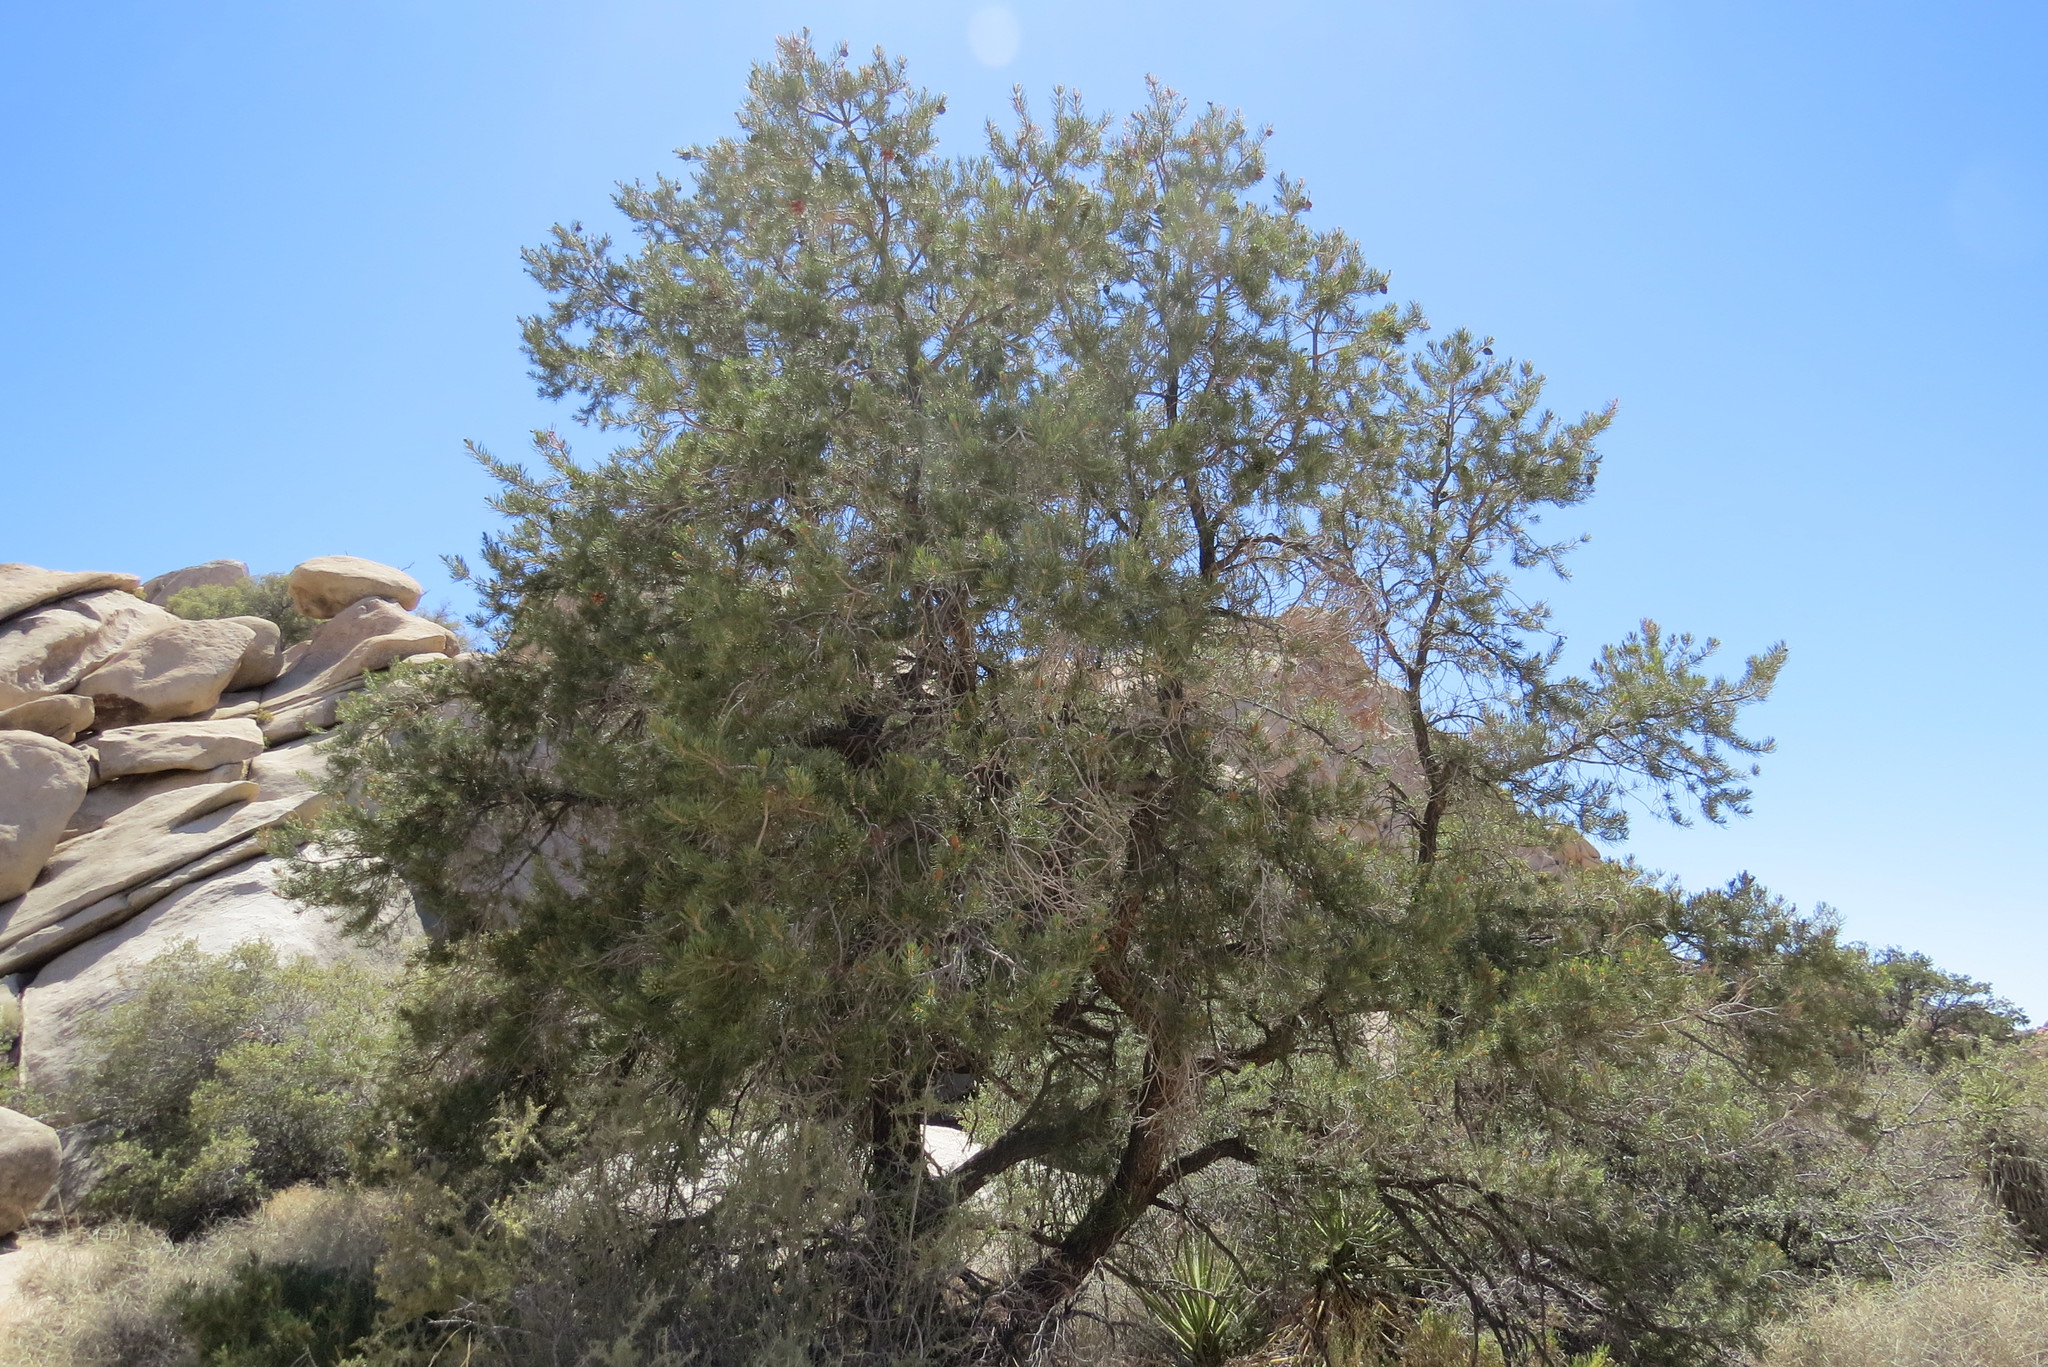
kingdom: Plantae
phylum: Tracheophyta
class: Pinopsida
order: Pinales
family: Pinaceae
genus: Pinus
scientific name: Pinus monophylla
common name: One-leaved nut pine
